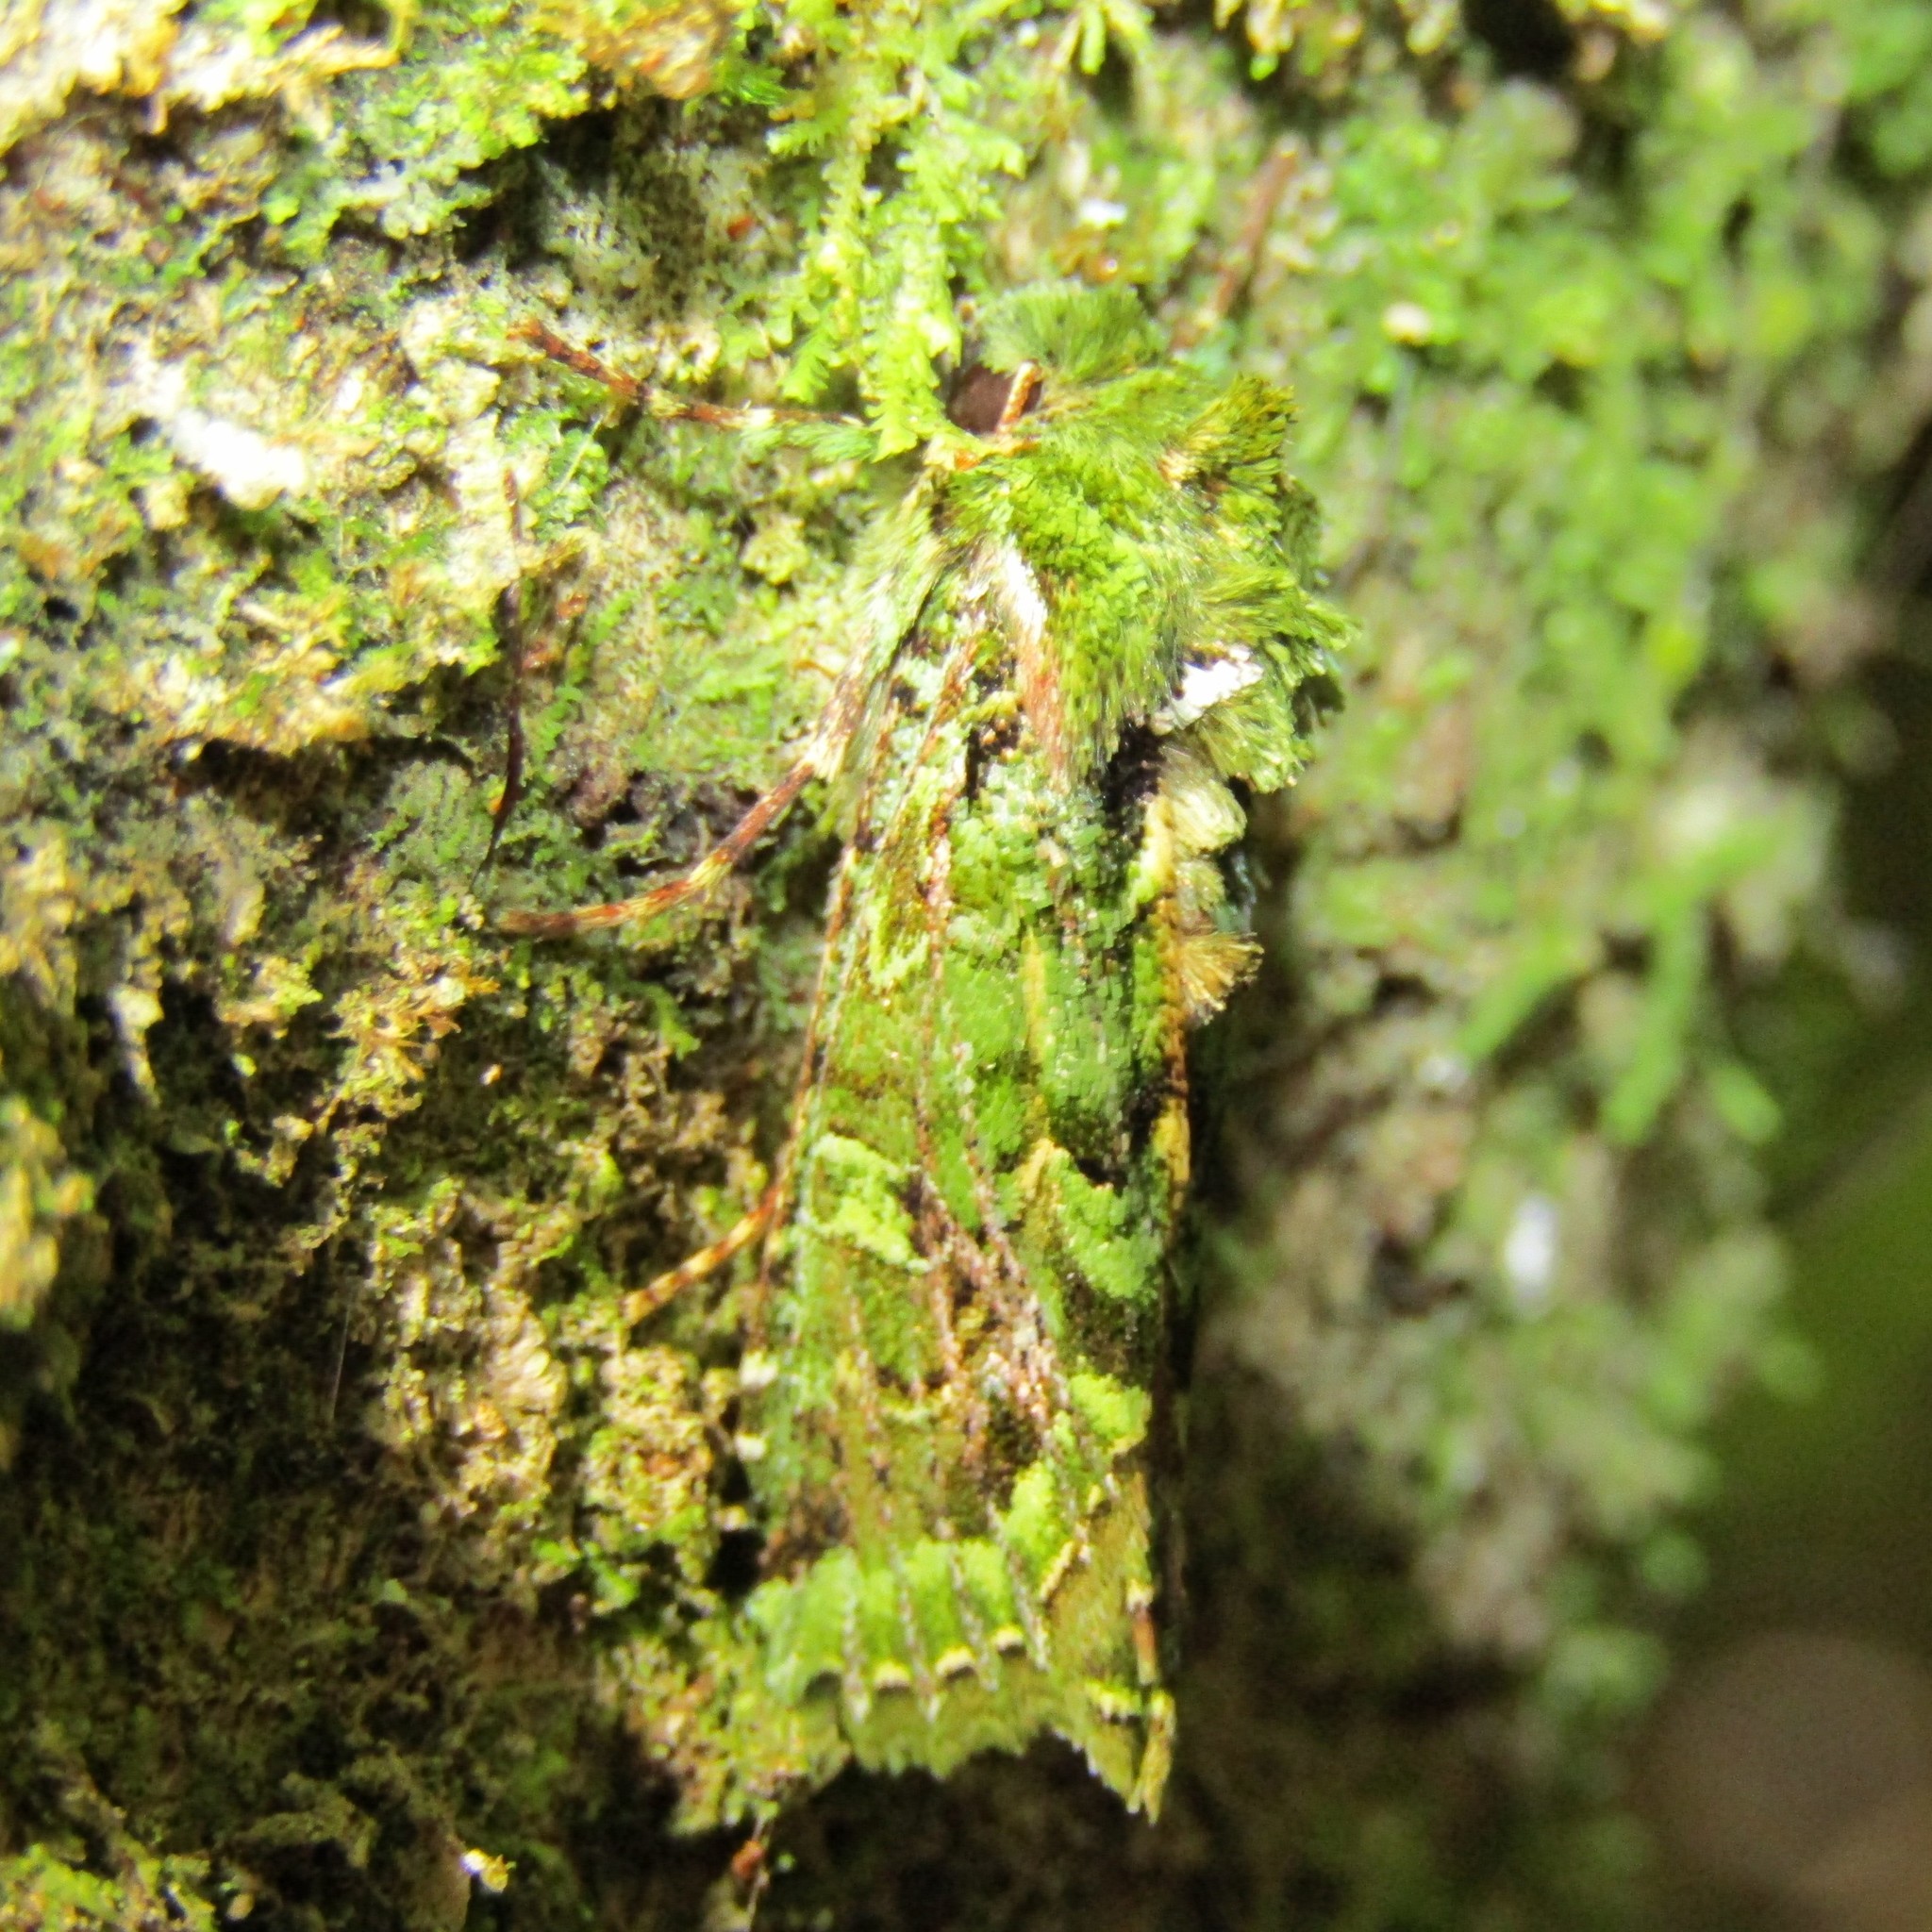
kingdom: Animalia
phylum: Arthropoda
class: Insecta
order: Lepidoptera
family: Noctuidae
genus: Feredayia
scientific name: Feredayia grammosa
